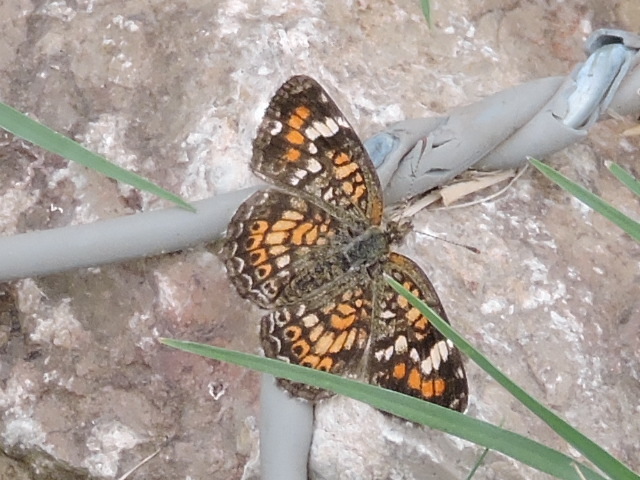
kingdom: Animalia
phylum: Arthropoda
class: Insecta
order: Lepidoptera
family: Nymphalidae
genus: Phyciodes
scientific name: Phyciodes phaon
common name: Phaon crescent
